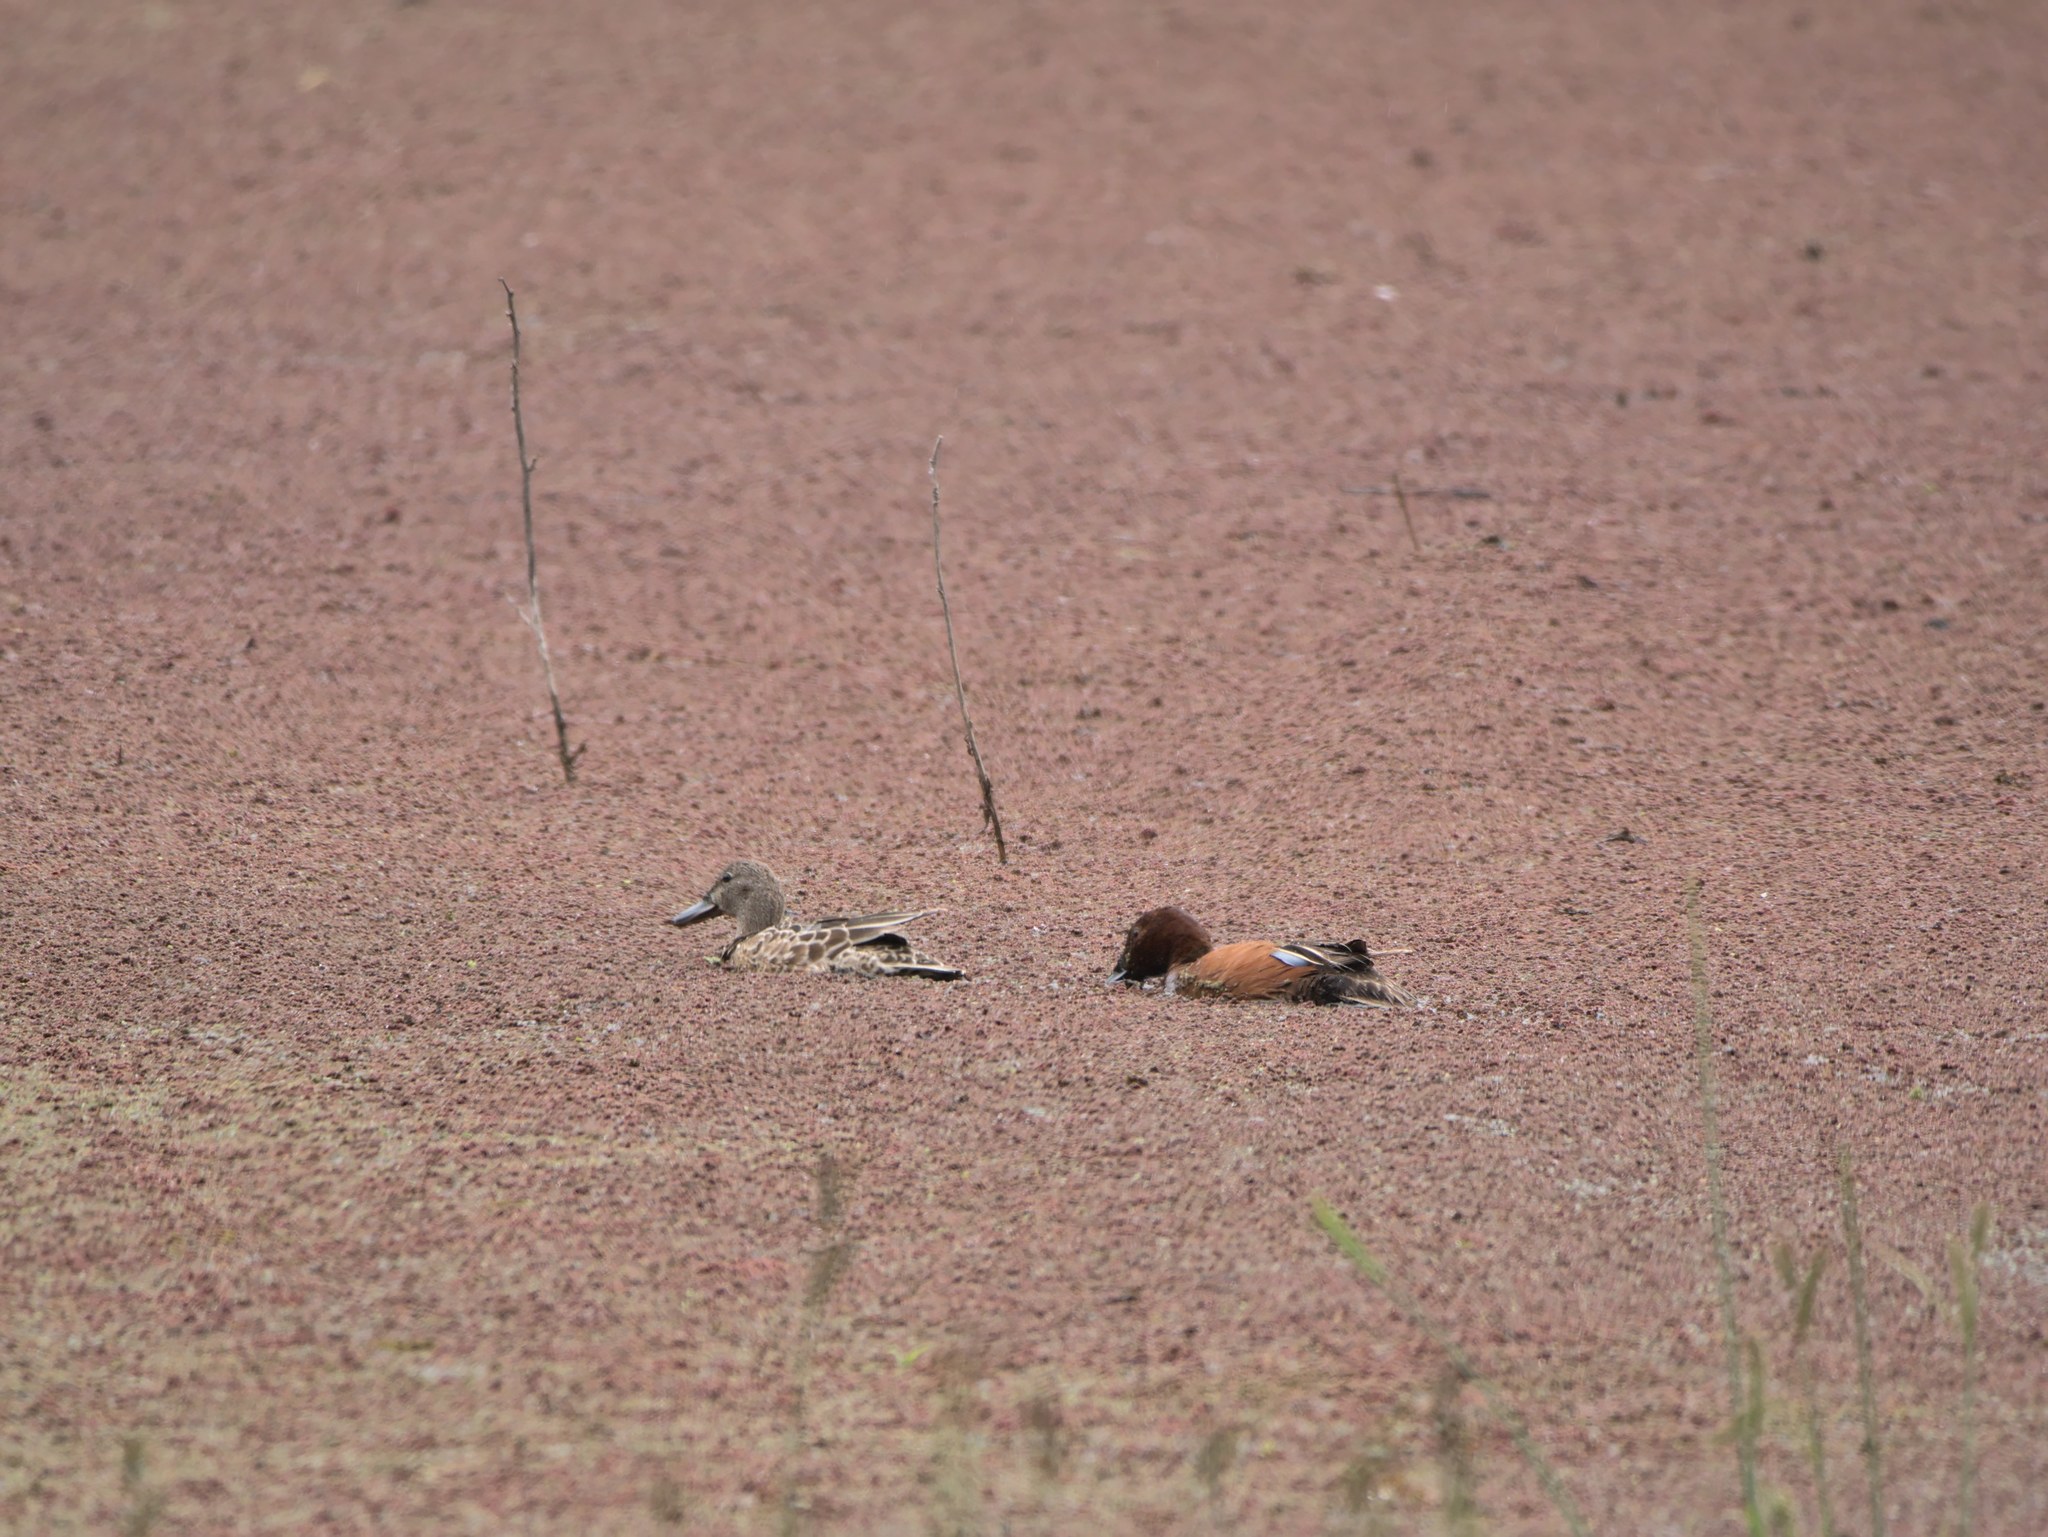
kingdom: Animalia
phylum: Chordata
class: Aves
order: Anseriformes
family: Anatidae
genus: Spatula
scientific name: Spatula cyanoptera
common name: Cinnamon teal
